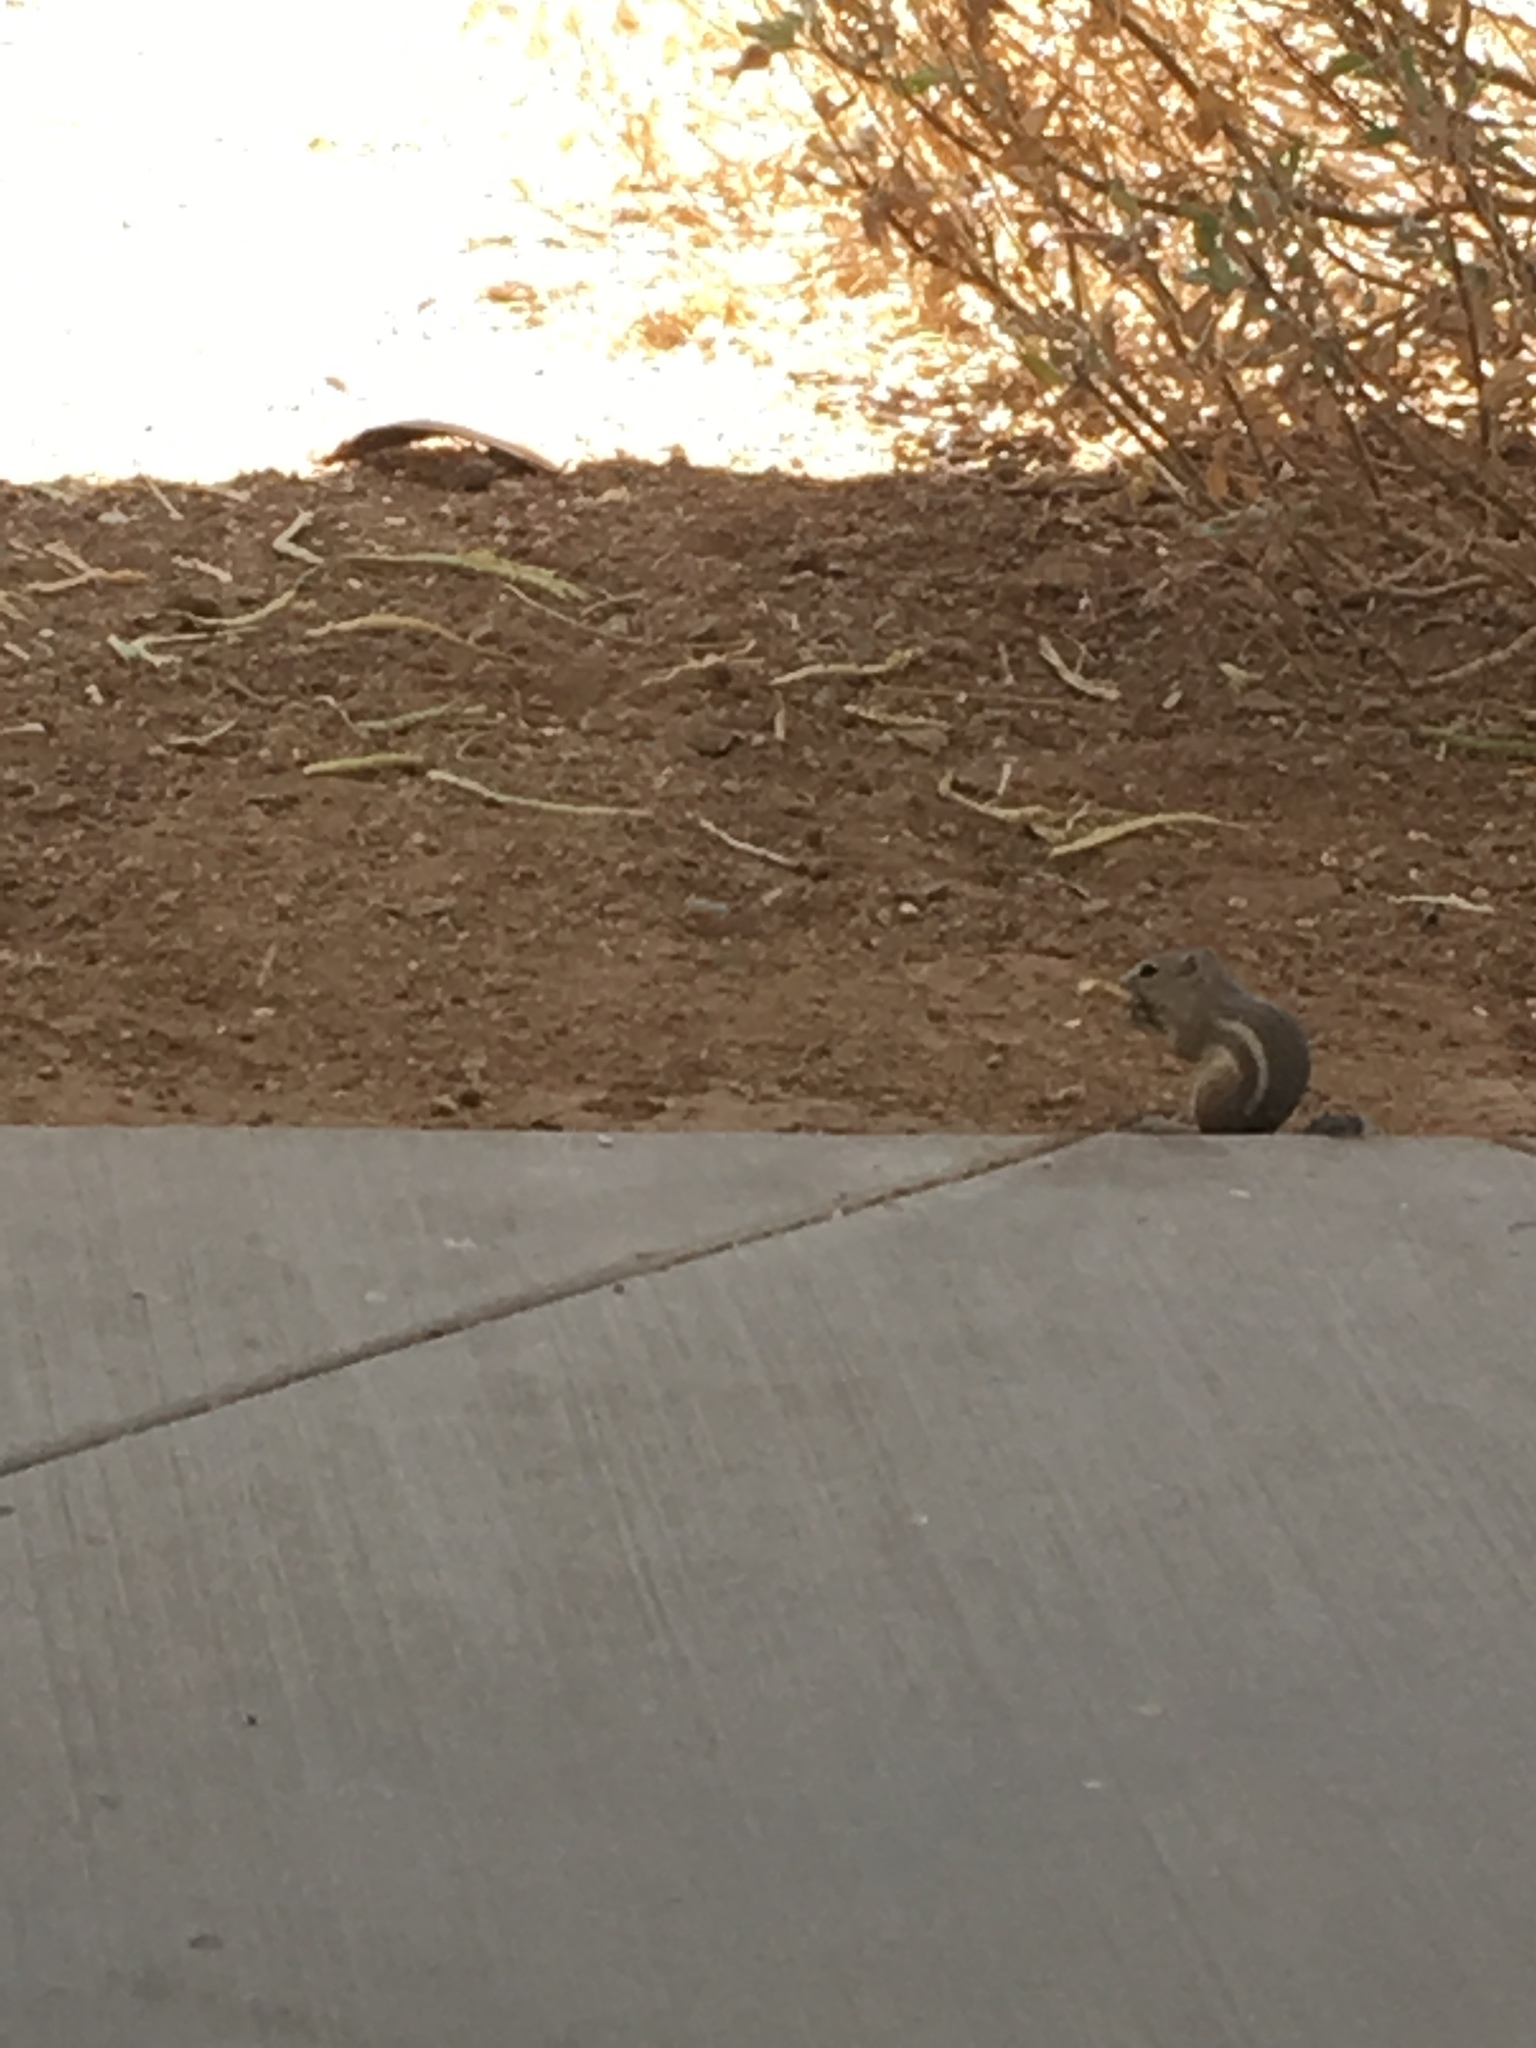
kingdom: Animalia
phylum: Chordata
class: Mammalia
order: Rodentia
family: Sciuridae
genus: Ammospermophilus
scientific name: Ammospermophilus leucurus
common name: White-tailed antelope squirrel
